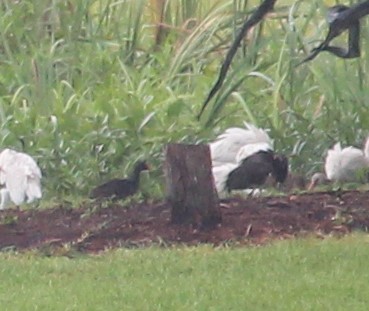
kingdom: Animalia
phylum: Chordata
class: Aves
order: Gruiformes
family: Rallidae
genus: Gallinula
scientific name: Gallinula chloropus
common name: Common moorhen
